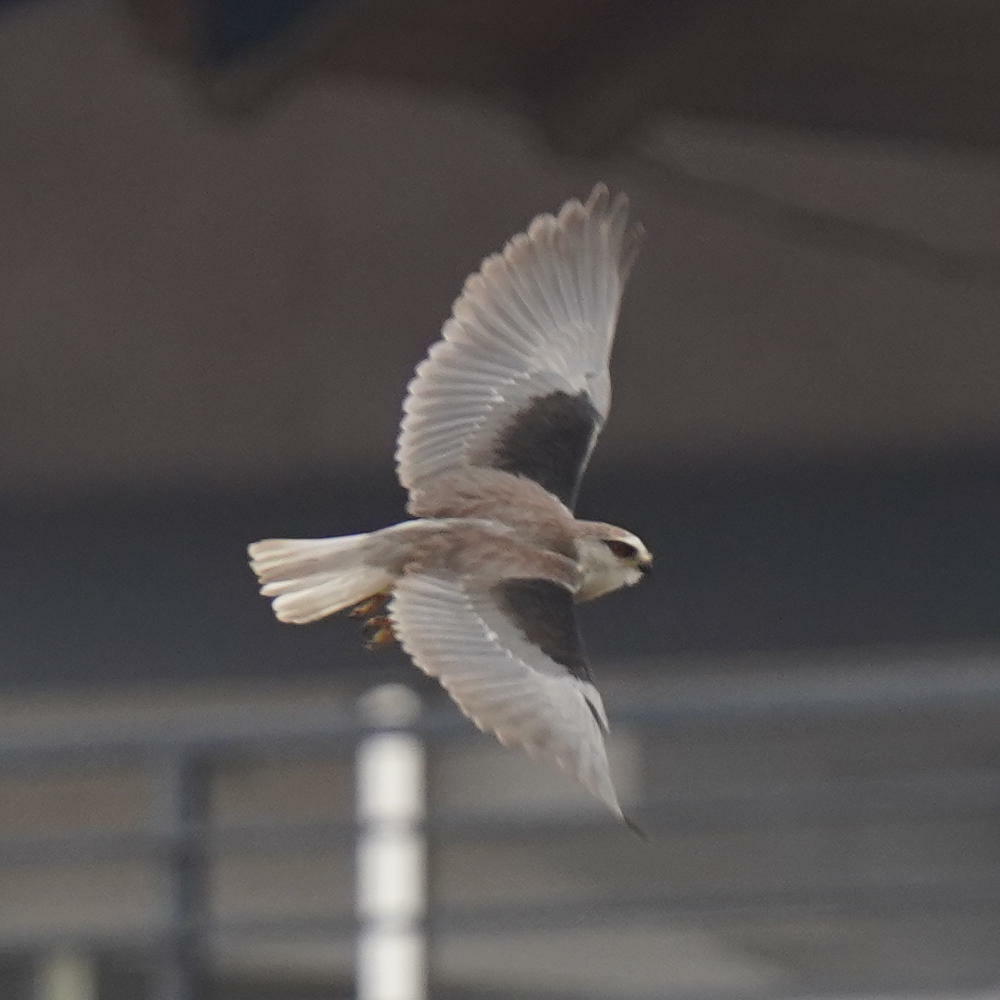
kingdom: Animalia
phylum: Chordata
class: Aves
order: Accipitriformes
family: Accipitridae
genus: Elanus
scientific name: Elanus caeruleus
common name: Black-winged kite
